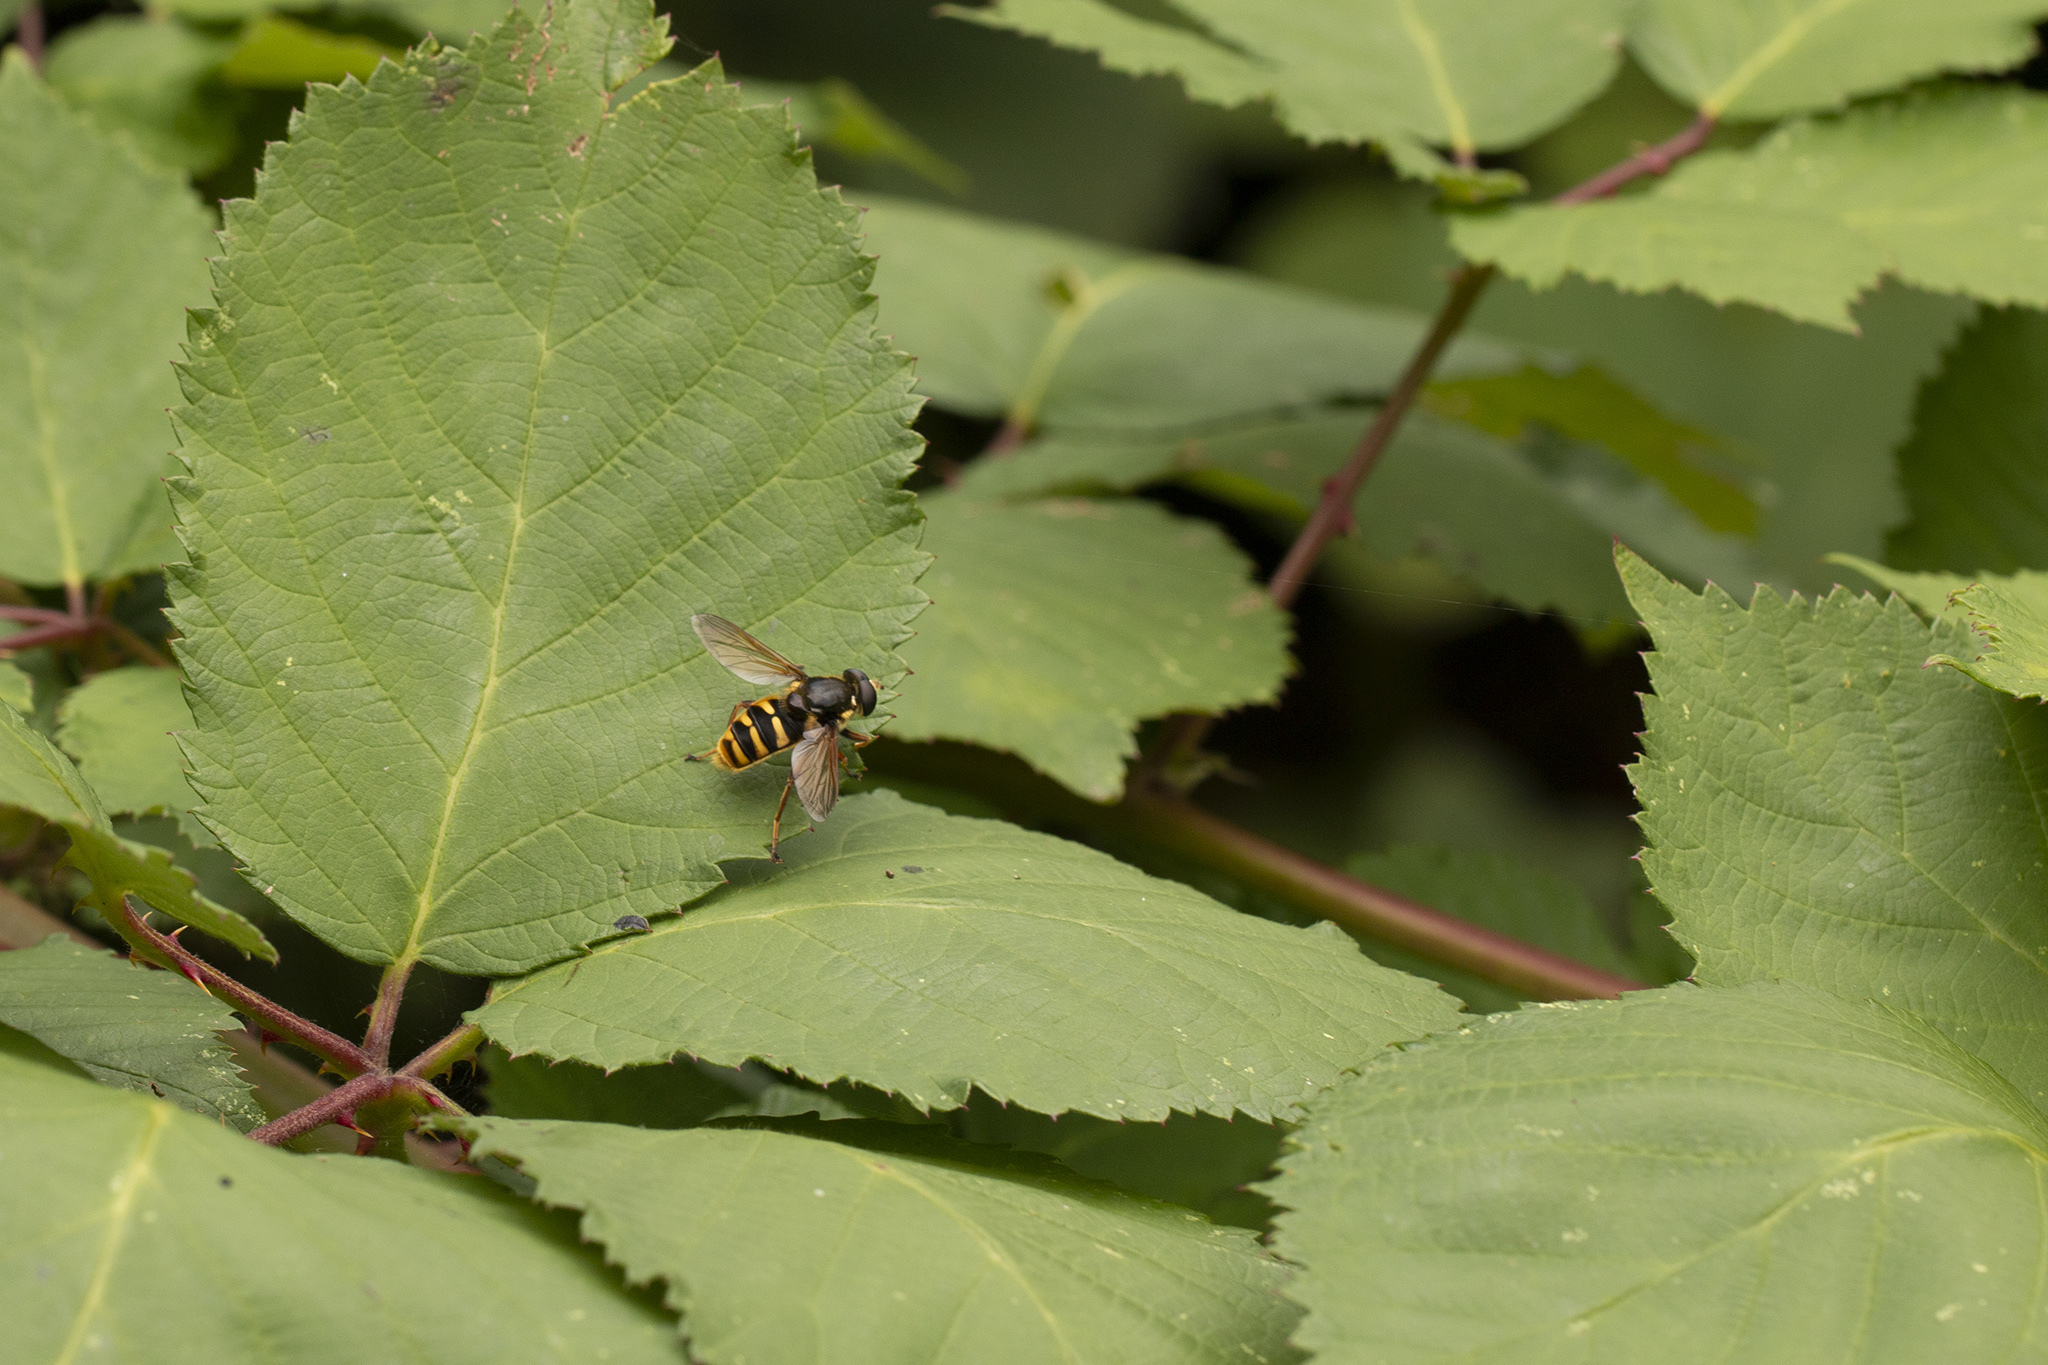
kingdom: Animalia
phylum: Arthropoda
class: Insecta
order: Diptera
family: Syrphidae
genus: Sericomyia
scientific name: Sericomyia silentis
